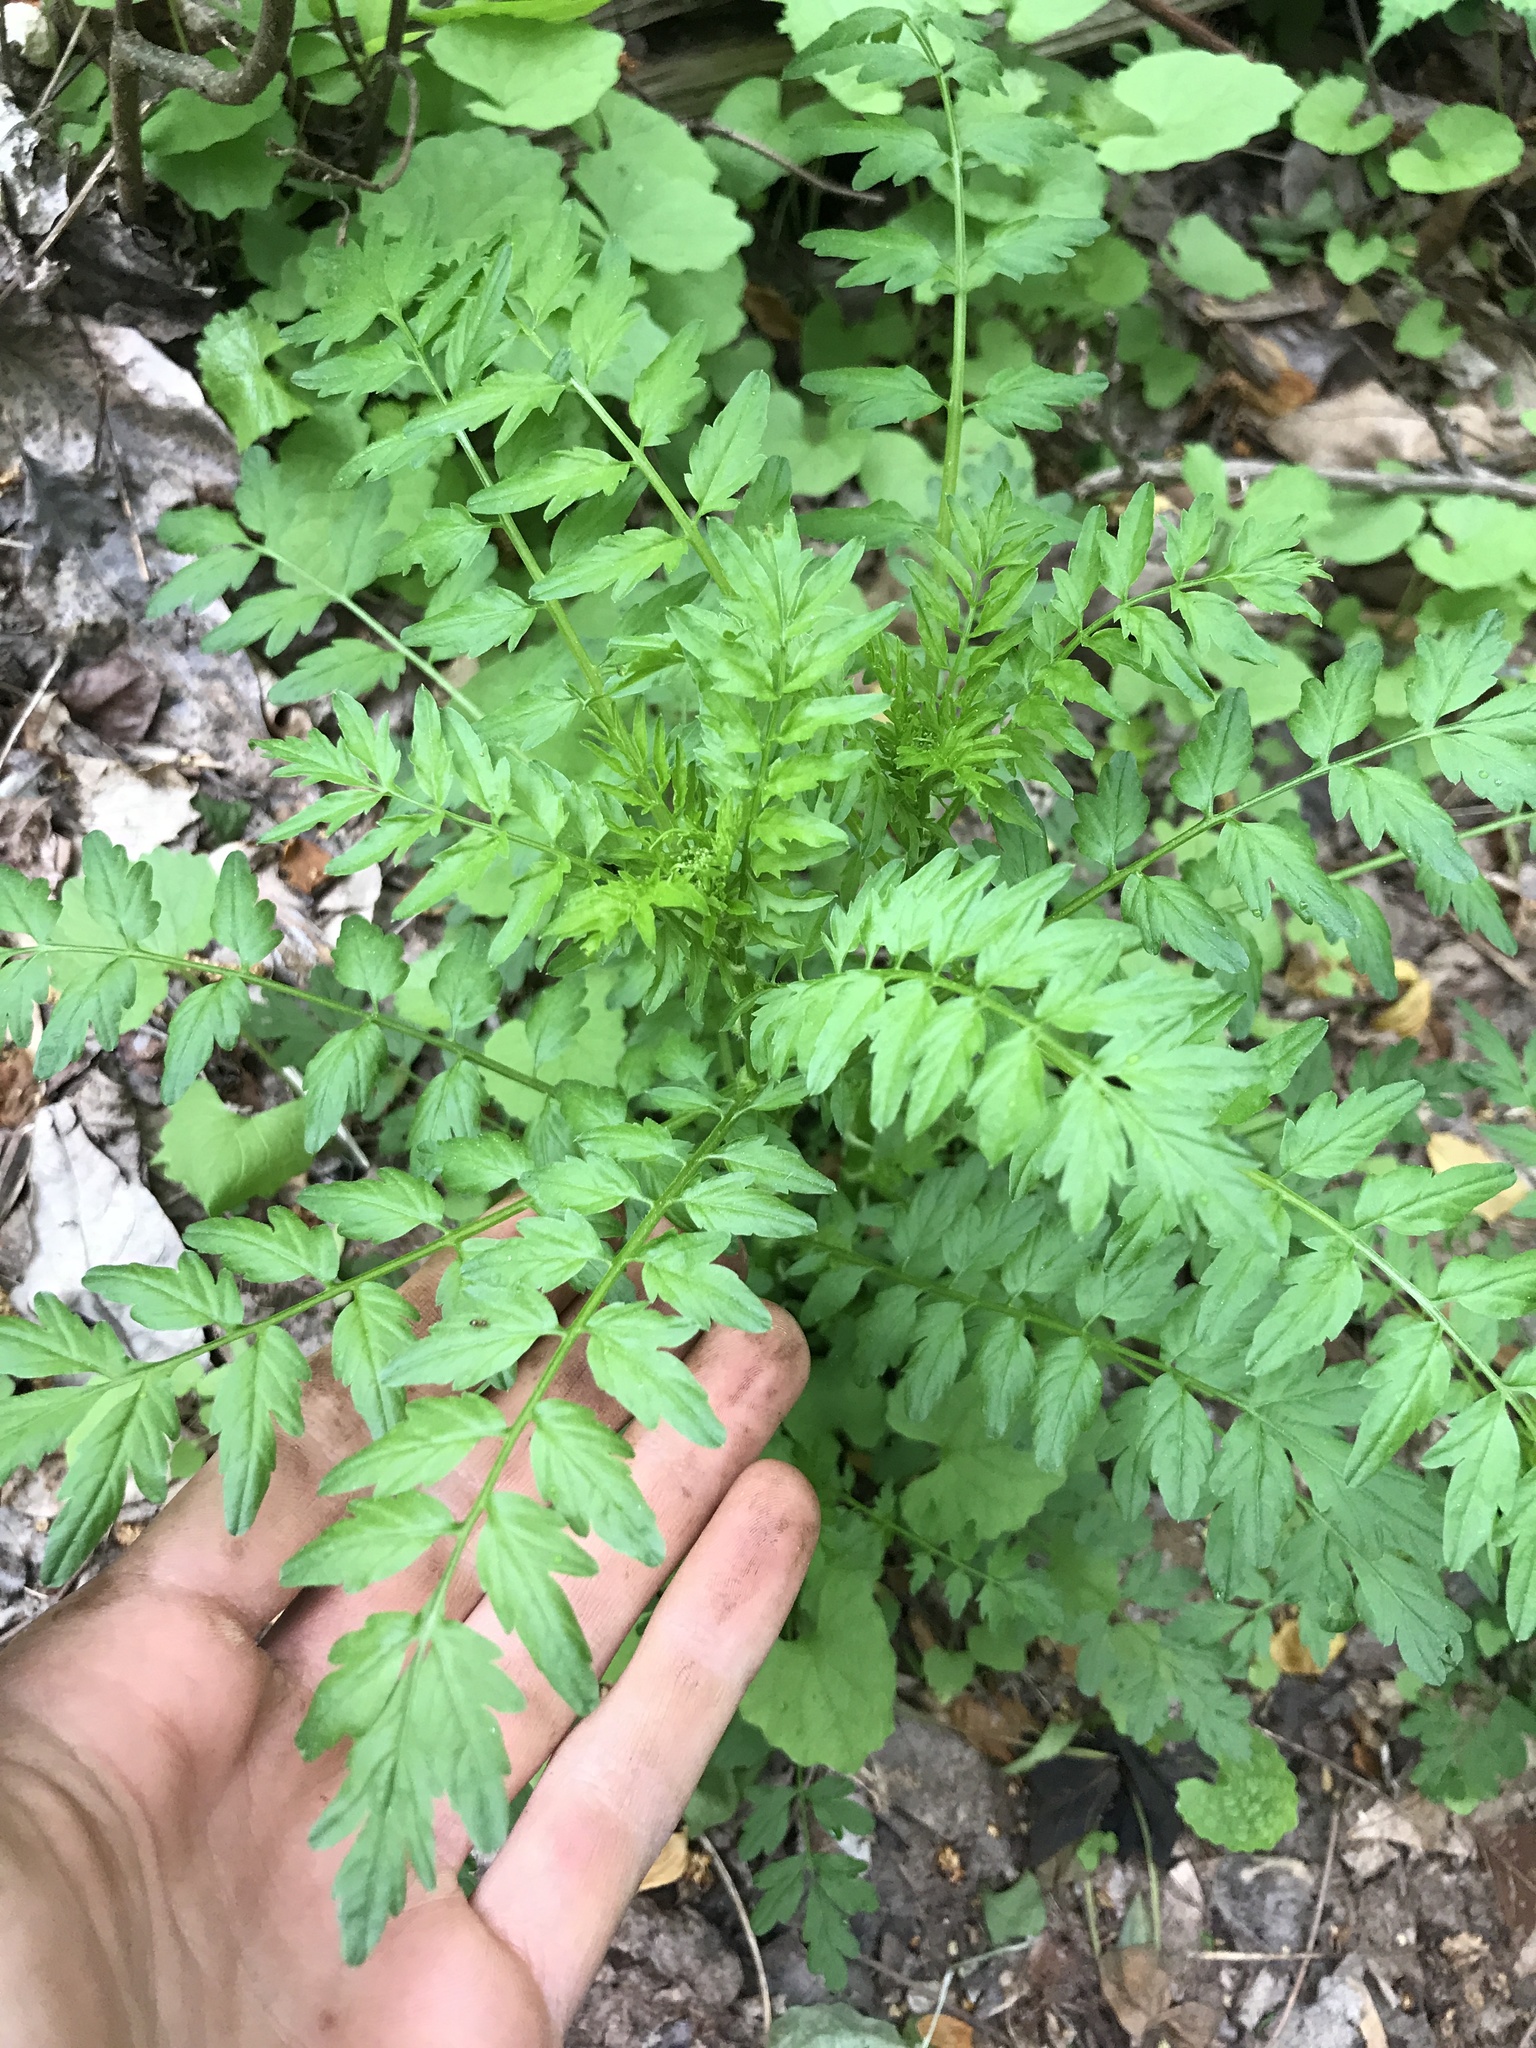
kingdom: Plantae
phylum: Tracheophyta
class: Magnoliopsida
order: Brassicales
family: Brassicaceae
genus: Cardamine
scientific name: Cardamine impatiens
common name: Narrow-leaved bitter-cress
